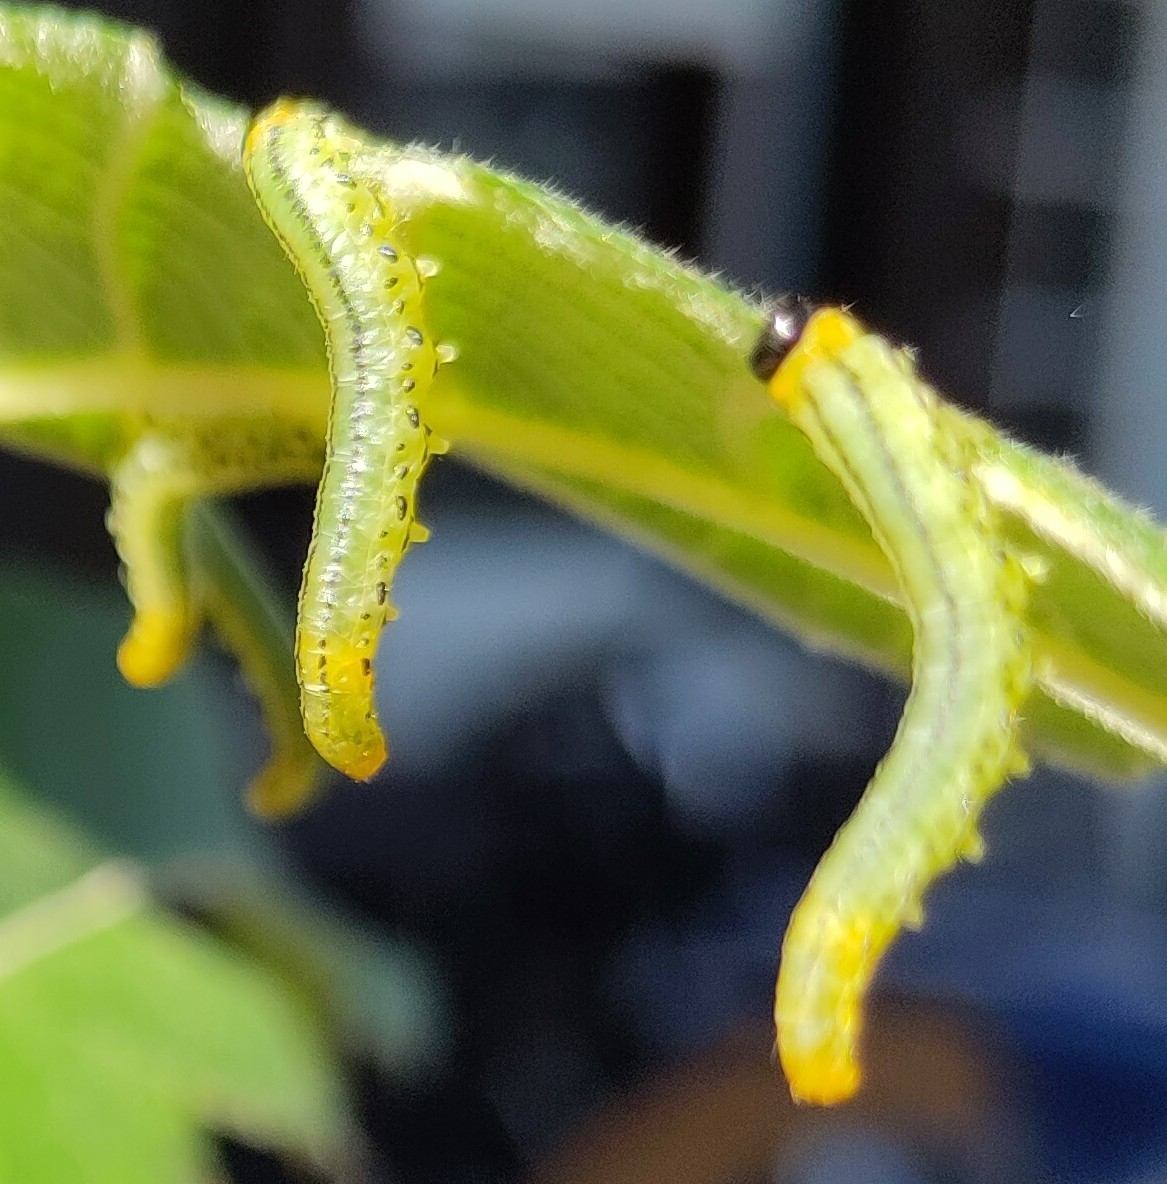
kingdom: Animalia
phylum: Arthropoda
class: Insecta
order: Hymenoptera
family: Tenthredinidae
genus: Nematus
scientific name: Nematus pavidus
